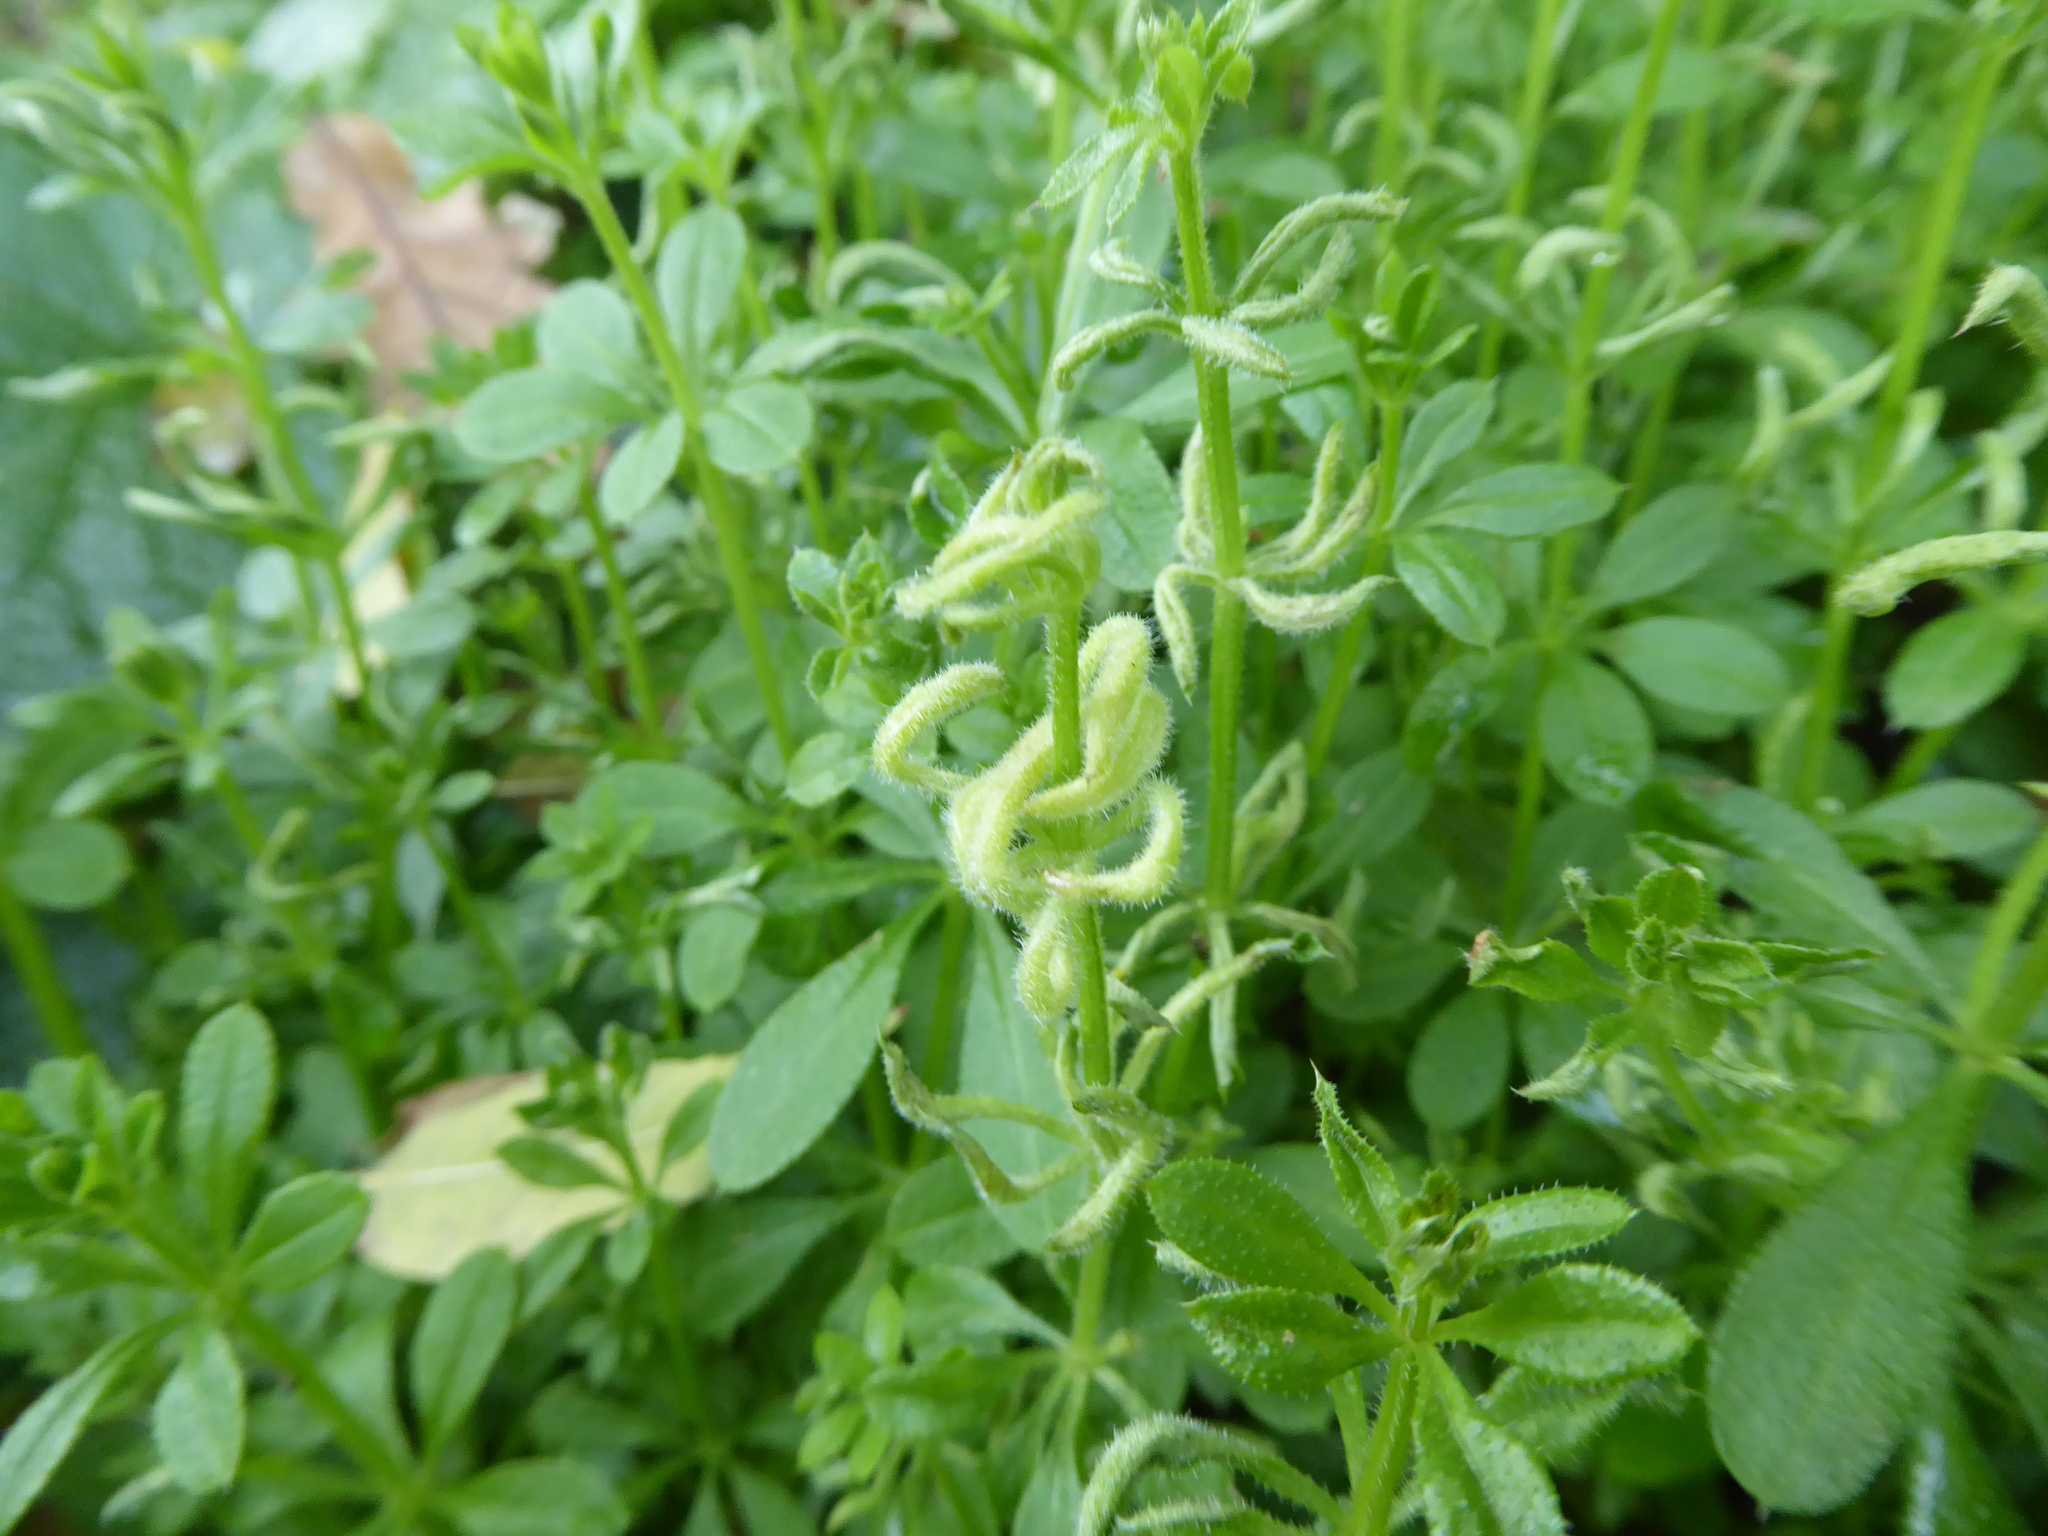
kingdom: Plantae
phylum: Tracheophyta
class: Magnoliopsida
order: Gentianales
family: Rubiaceae
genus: Galium
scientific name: Galium aparine
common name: Cleavers
